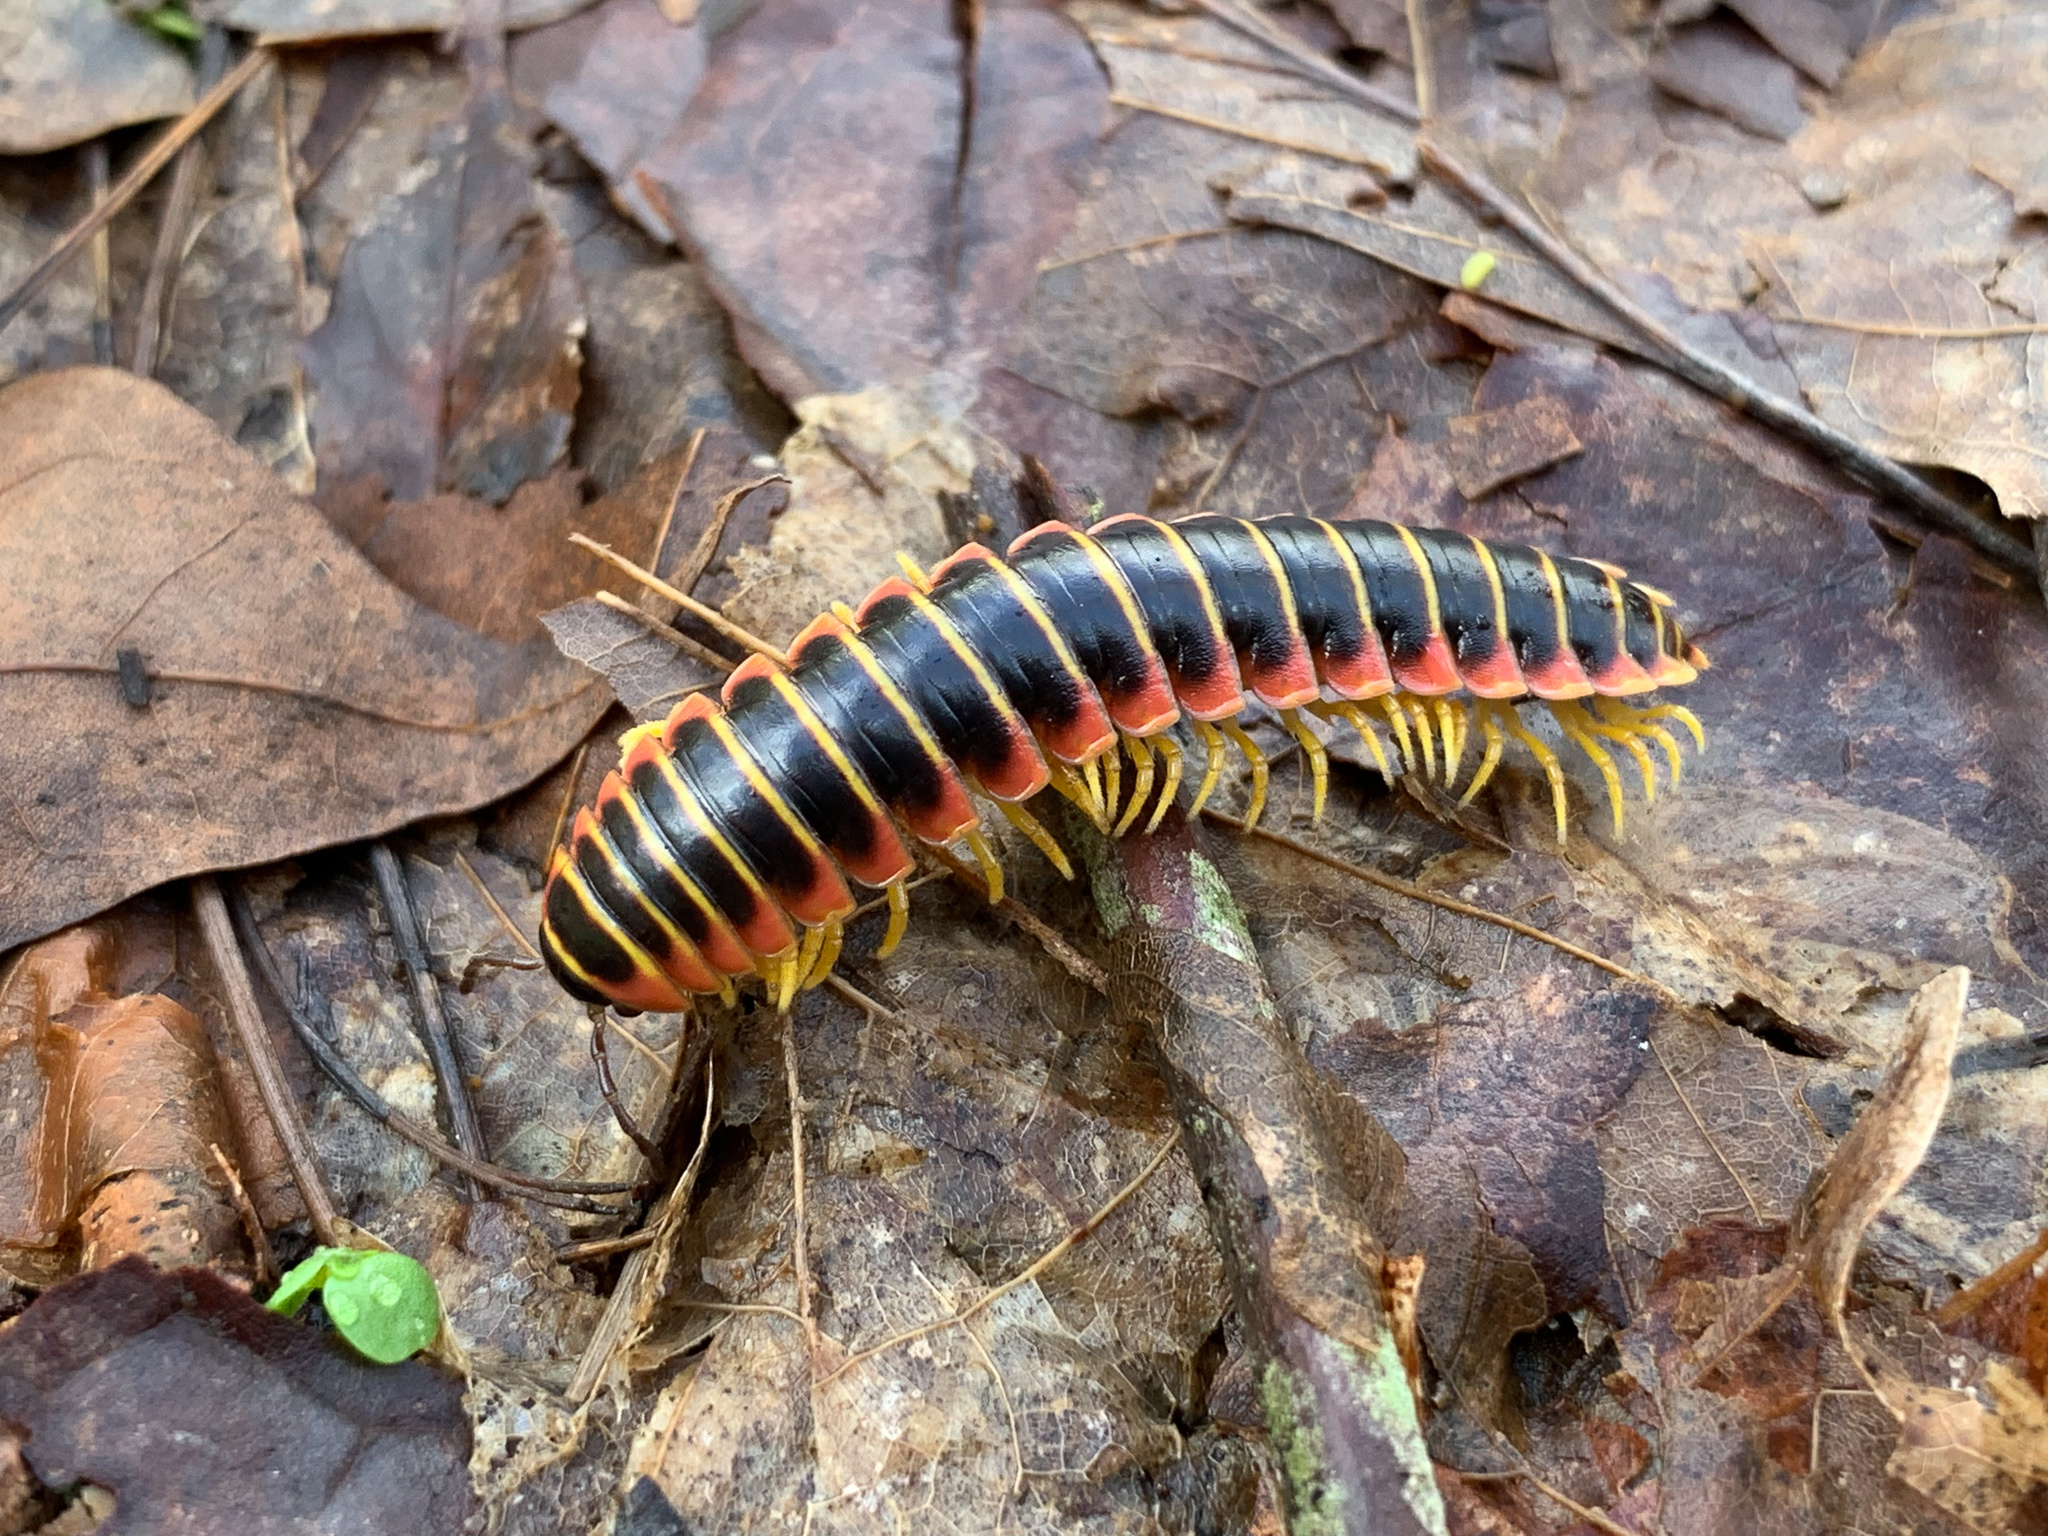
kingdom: Animalia
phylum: Arthropoda
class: Diplopoda
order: Polydesmida
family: Xystodesmidae
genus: Apheloria
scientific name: Apheloria virginiensis
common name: Black-and-gold flat millipede
